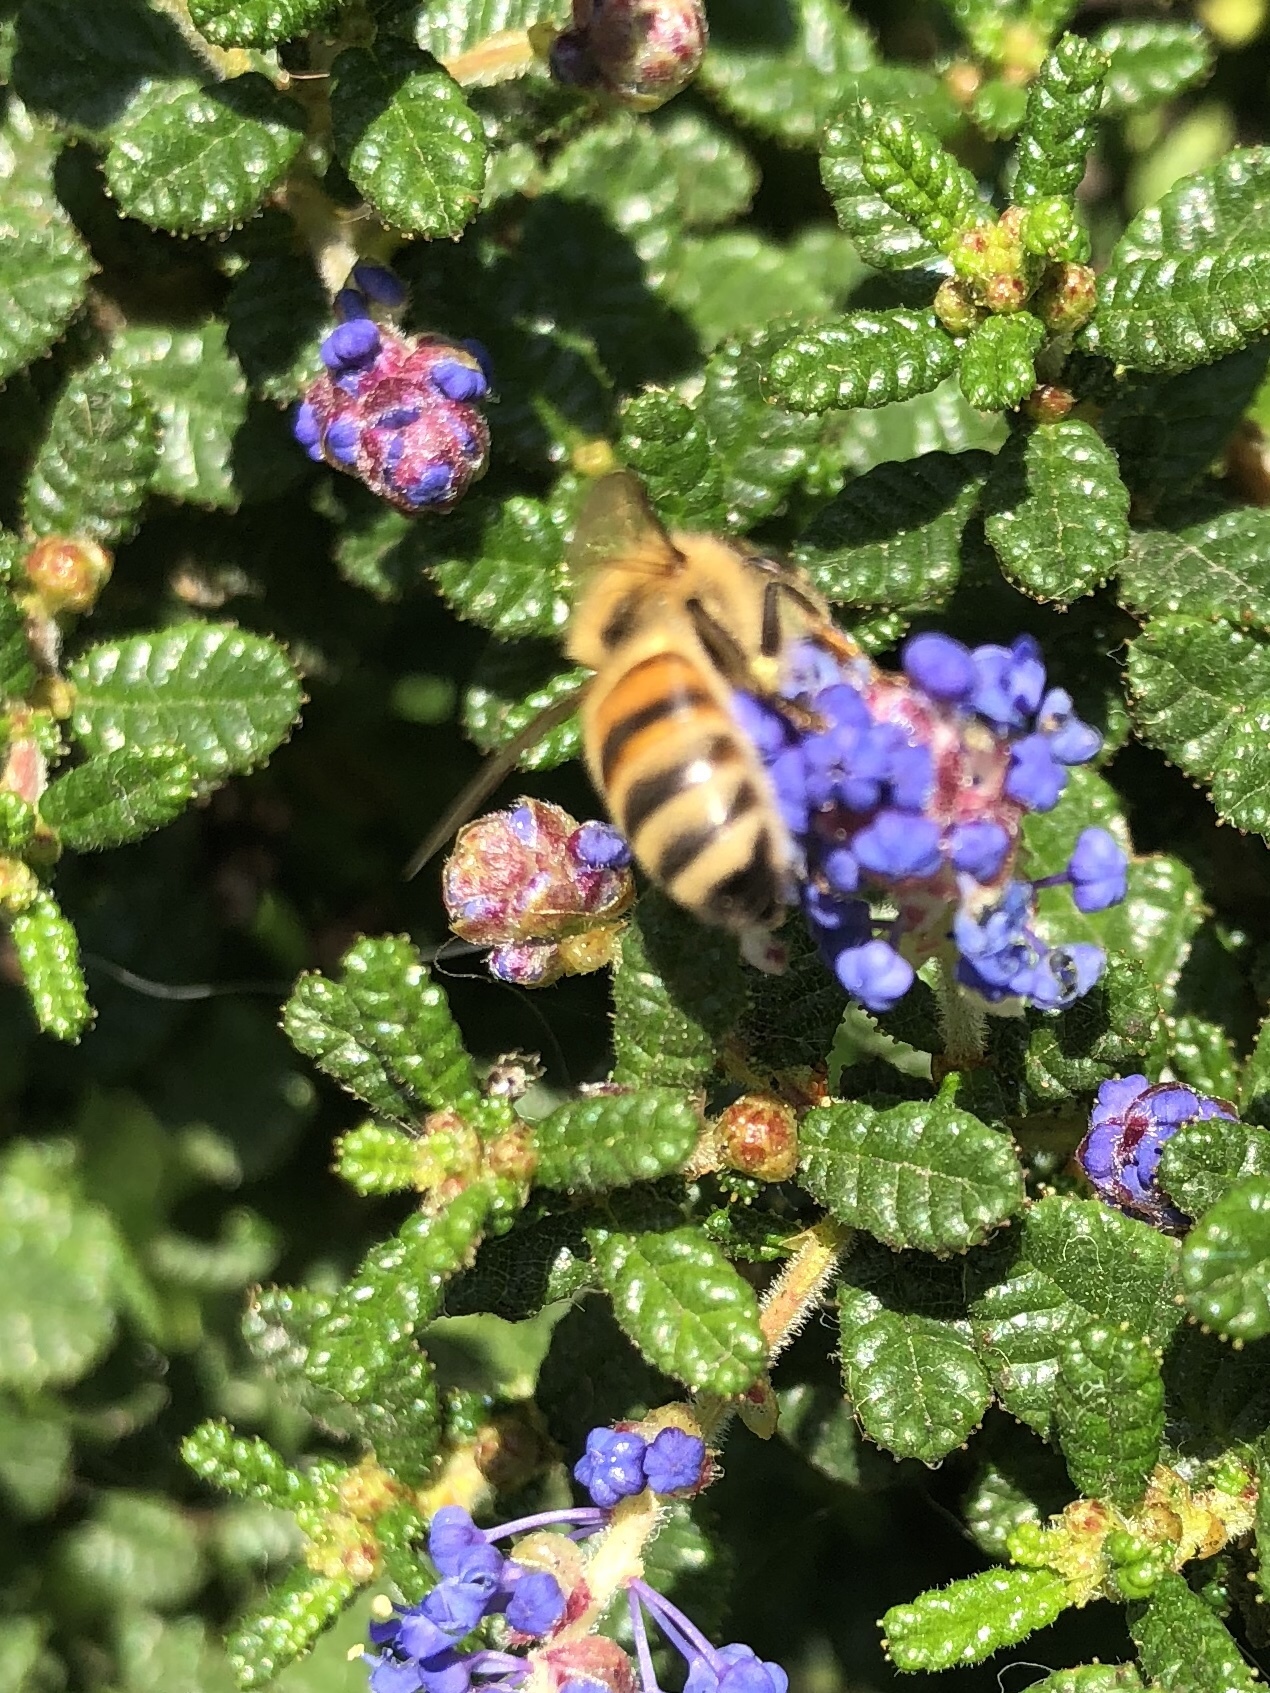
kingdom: Animalia
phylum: Arthropoda
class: Insecta
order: Hymenoptera
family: Apidae
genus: Apis
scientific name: Apis mellifera
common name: Honey bee
